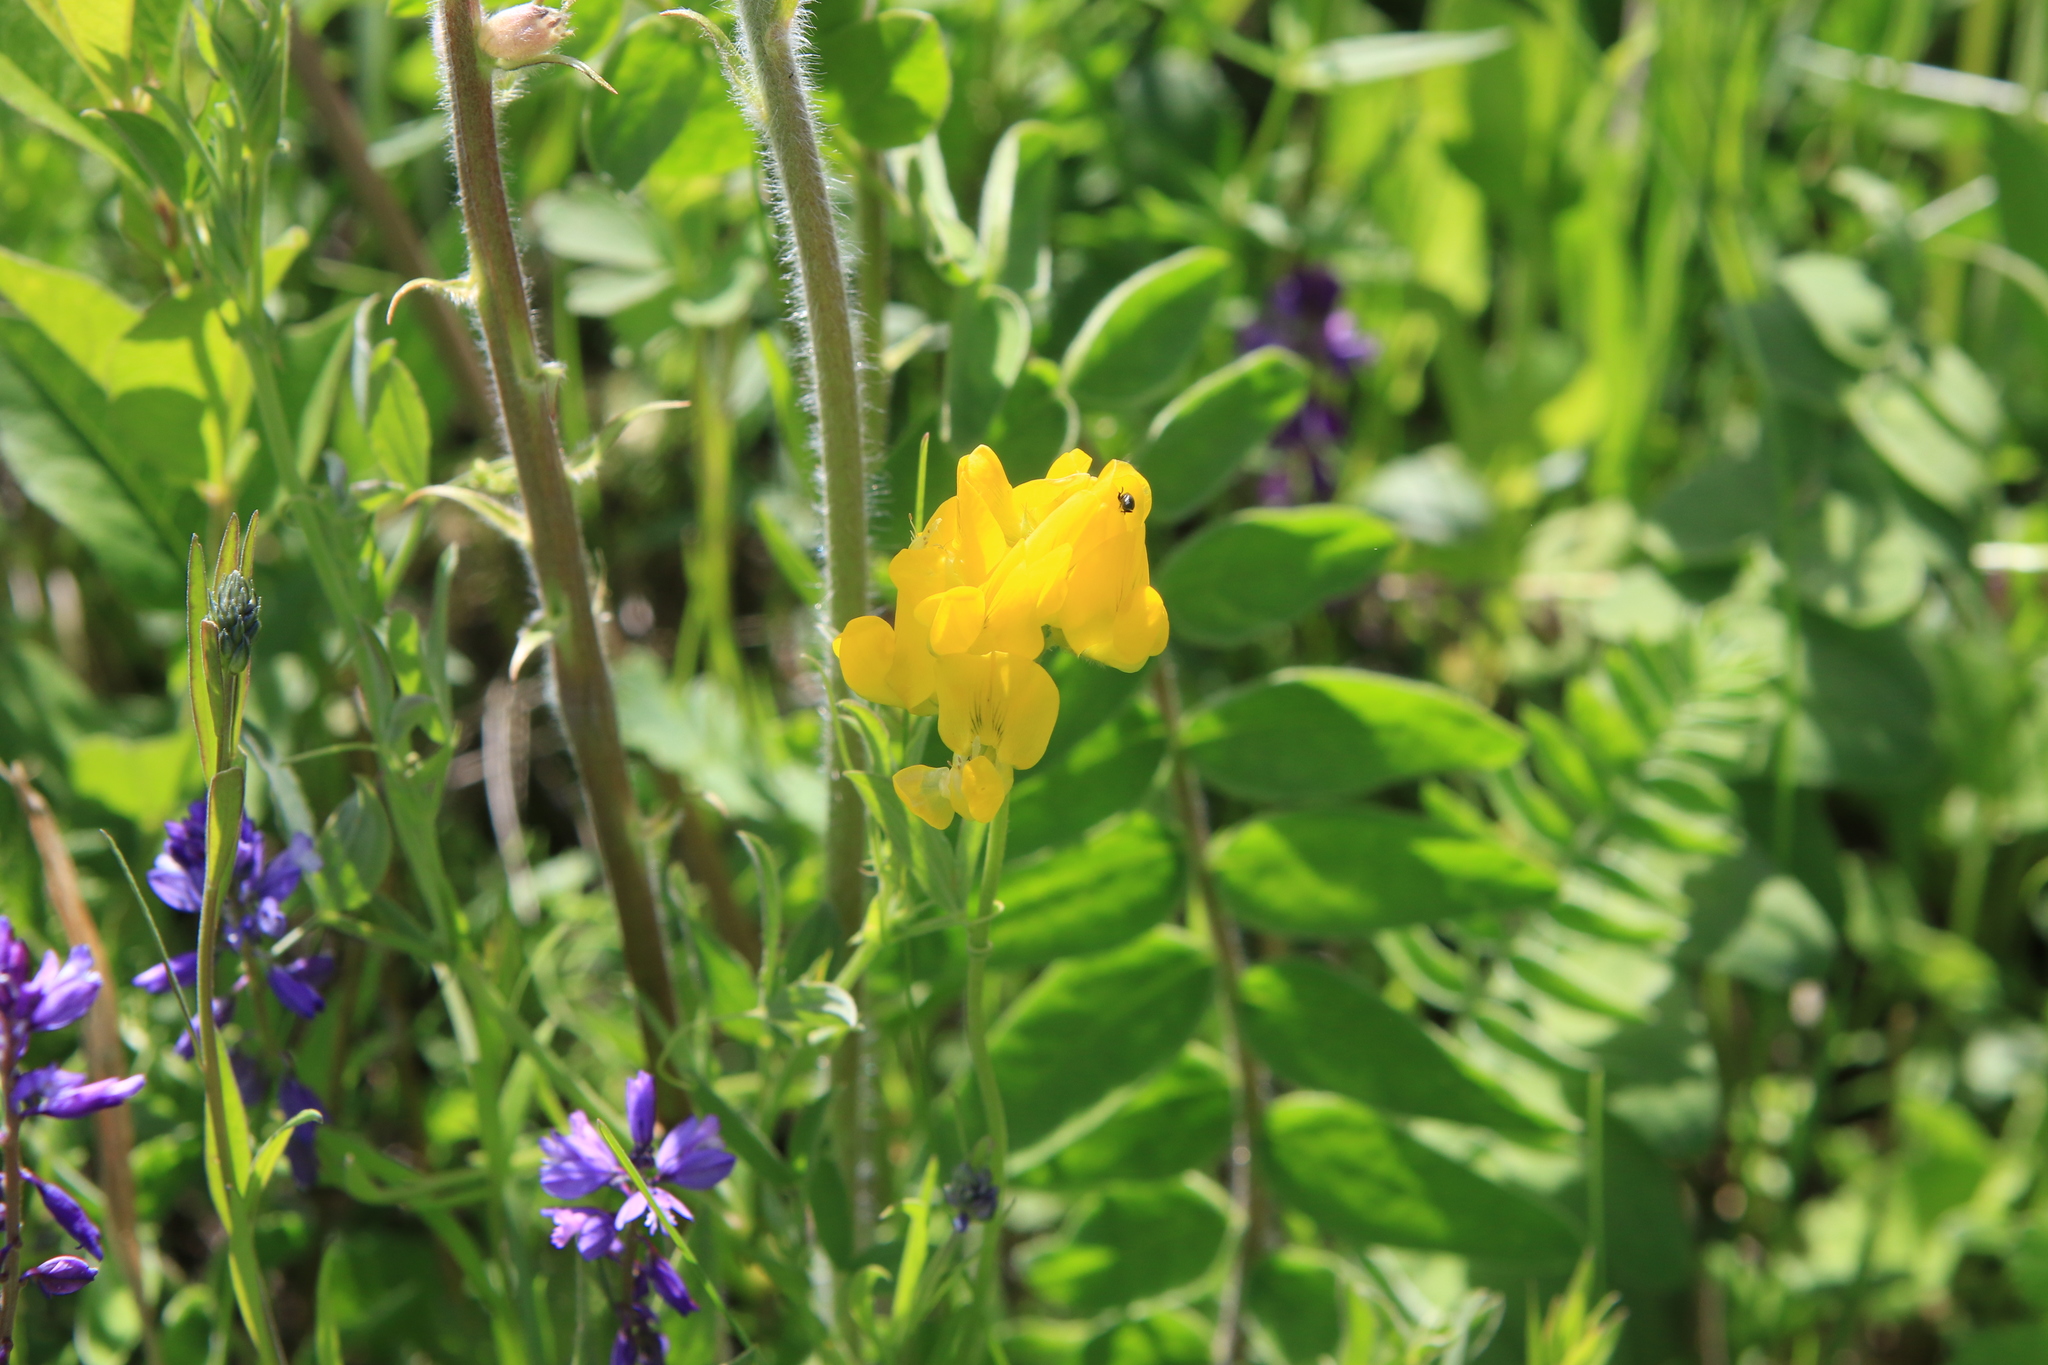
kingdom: Plantae
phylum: Tracheophyta
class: Magnoliopsida
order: Fabales
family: Fabaceae
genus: Lathyrus
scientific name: Lathyrus pratensis
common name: Meadow vetchling
